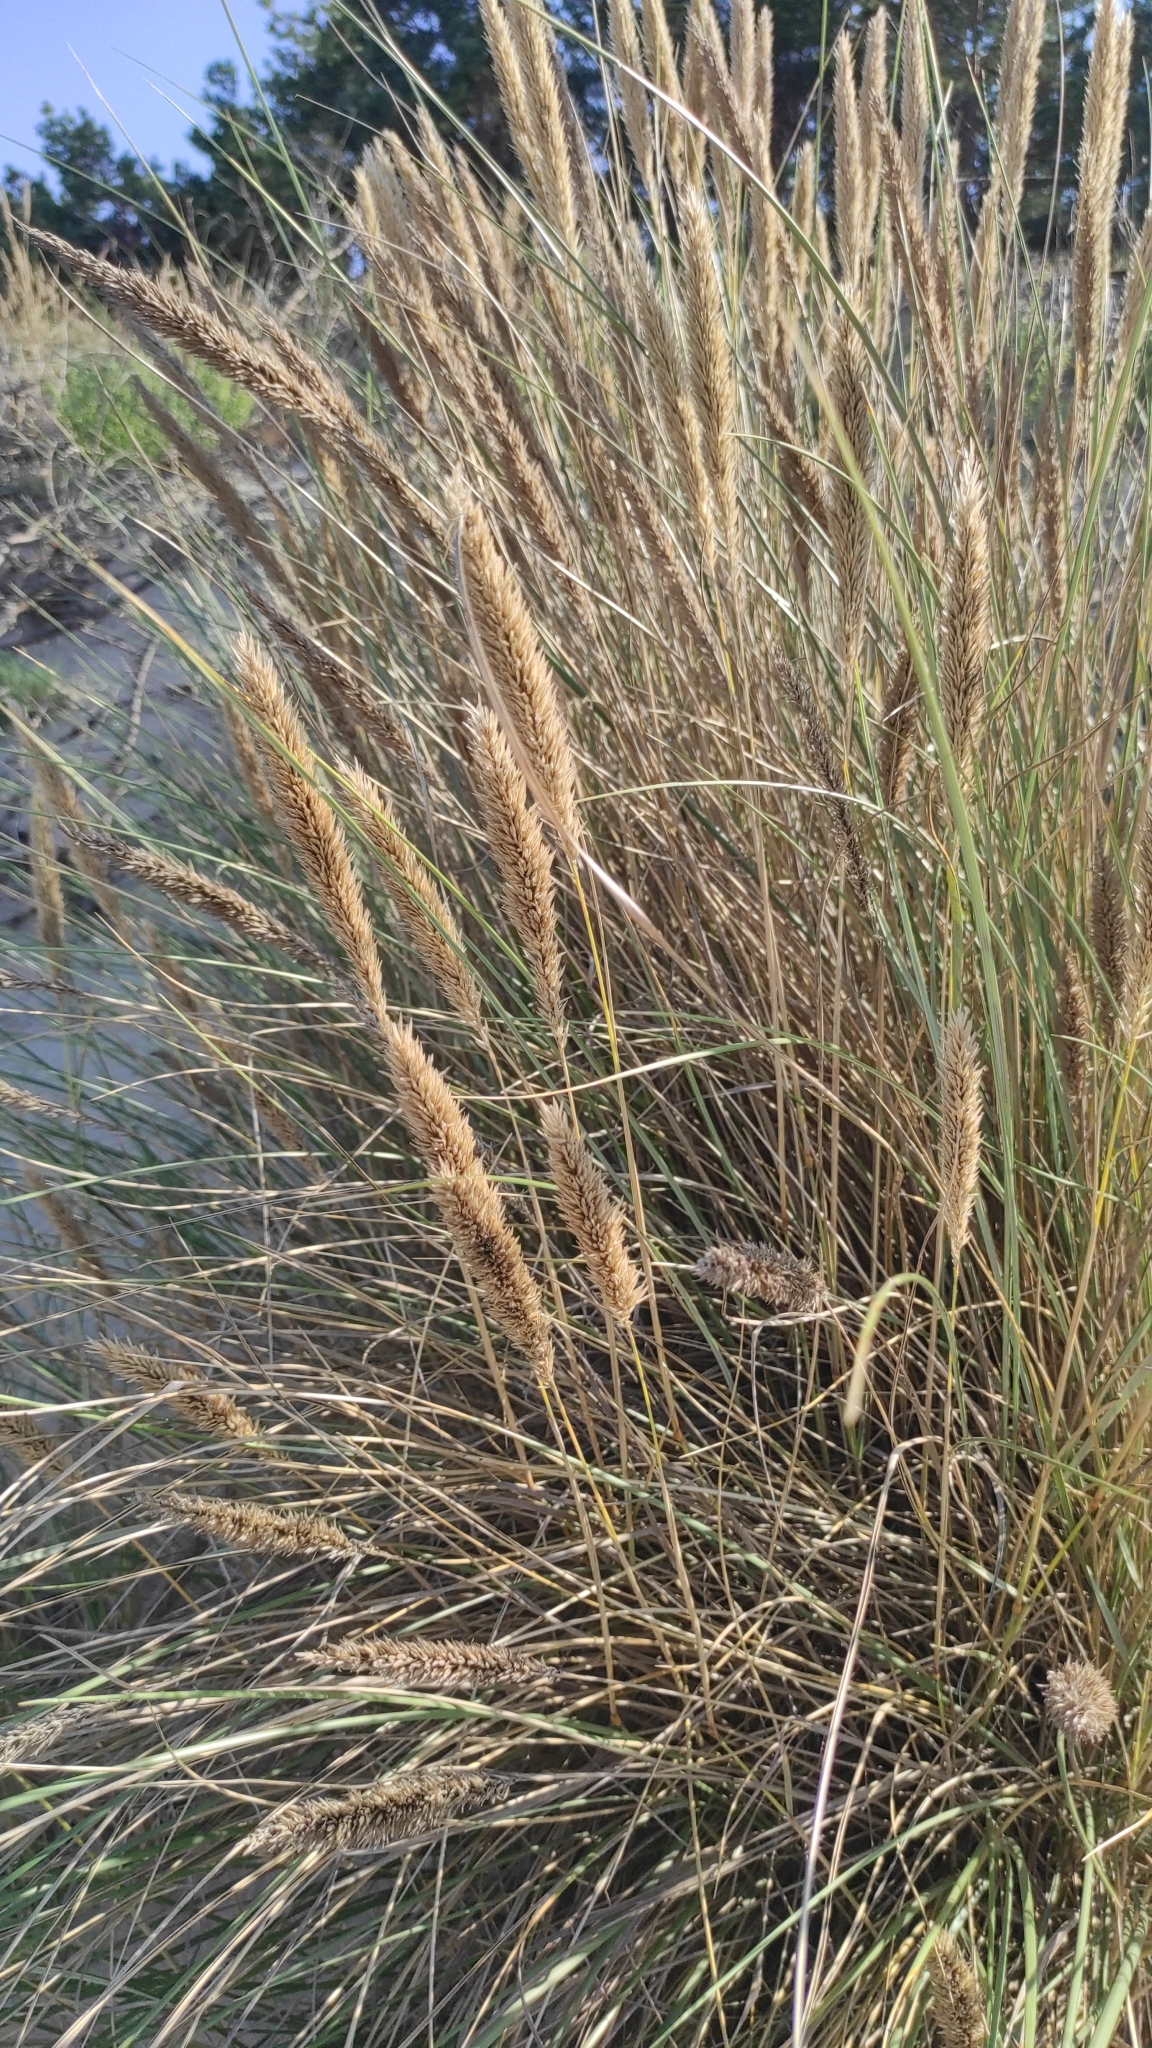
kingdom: Plantae
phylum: Tracheophyta
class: Liliopsida
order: Poales
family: Poaceae
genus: Calamagrostis
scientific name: Calamagrostis arenaria
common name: European beachgrass
